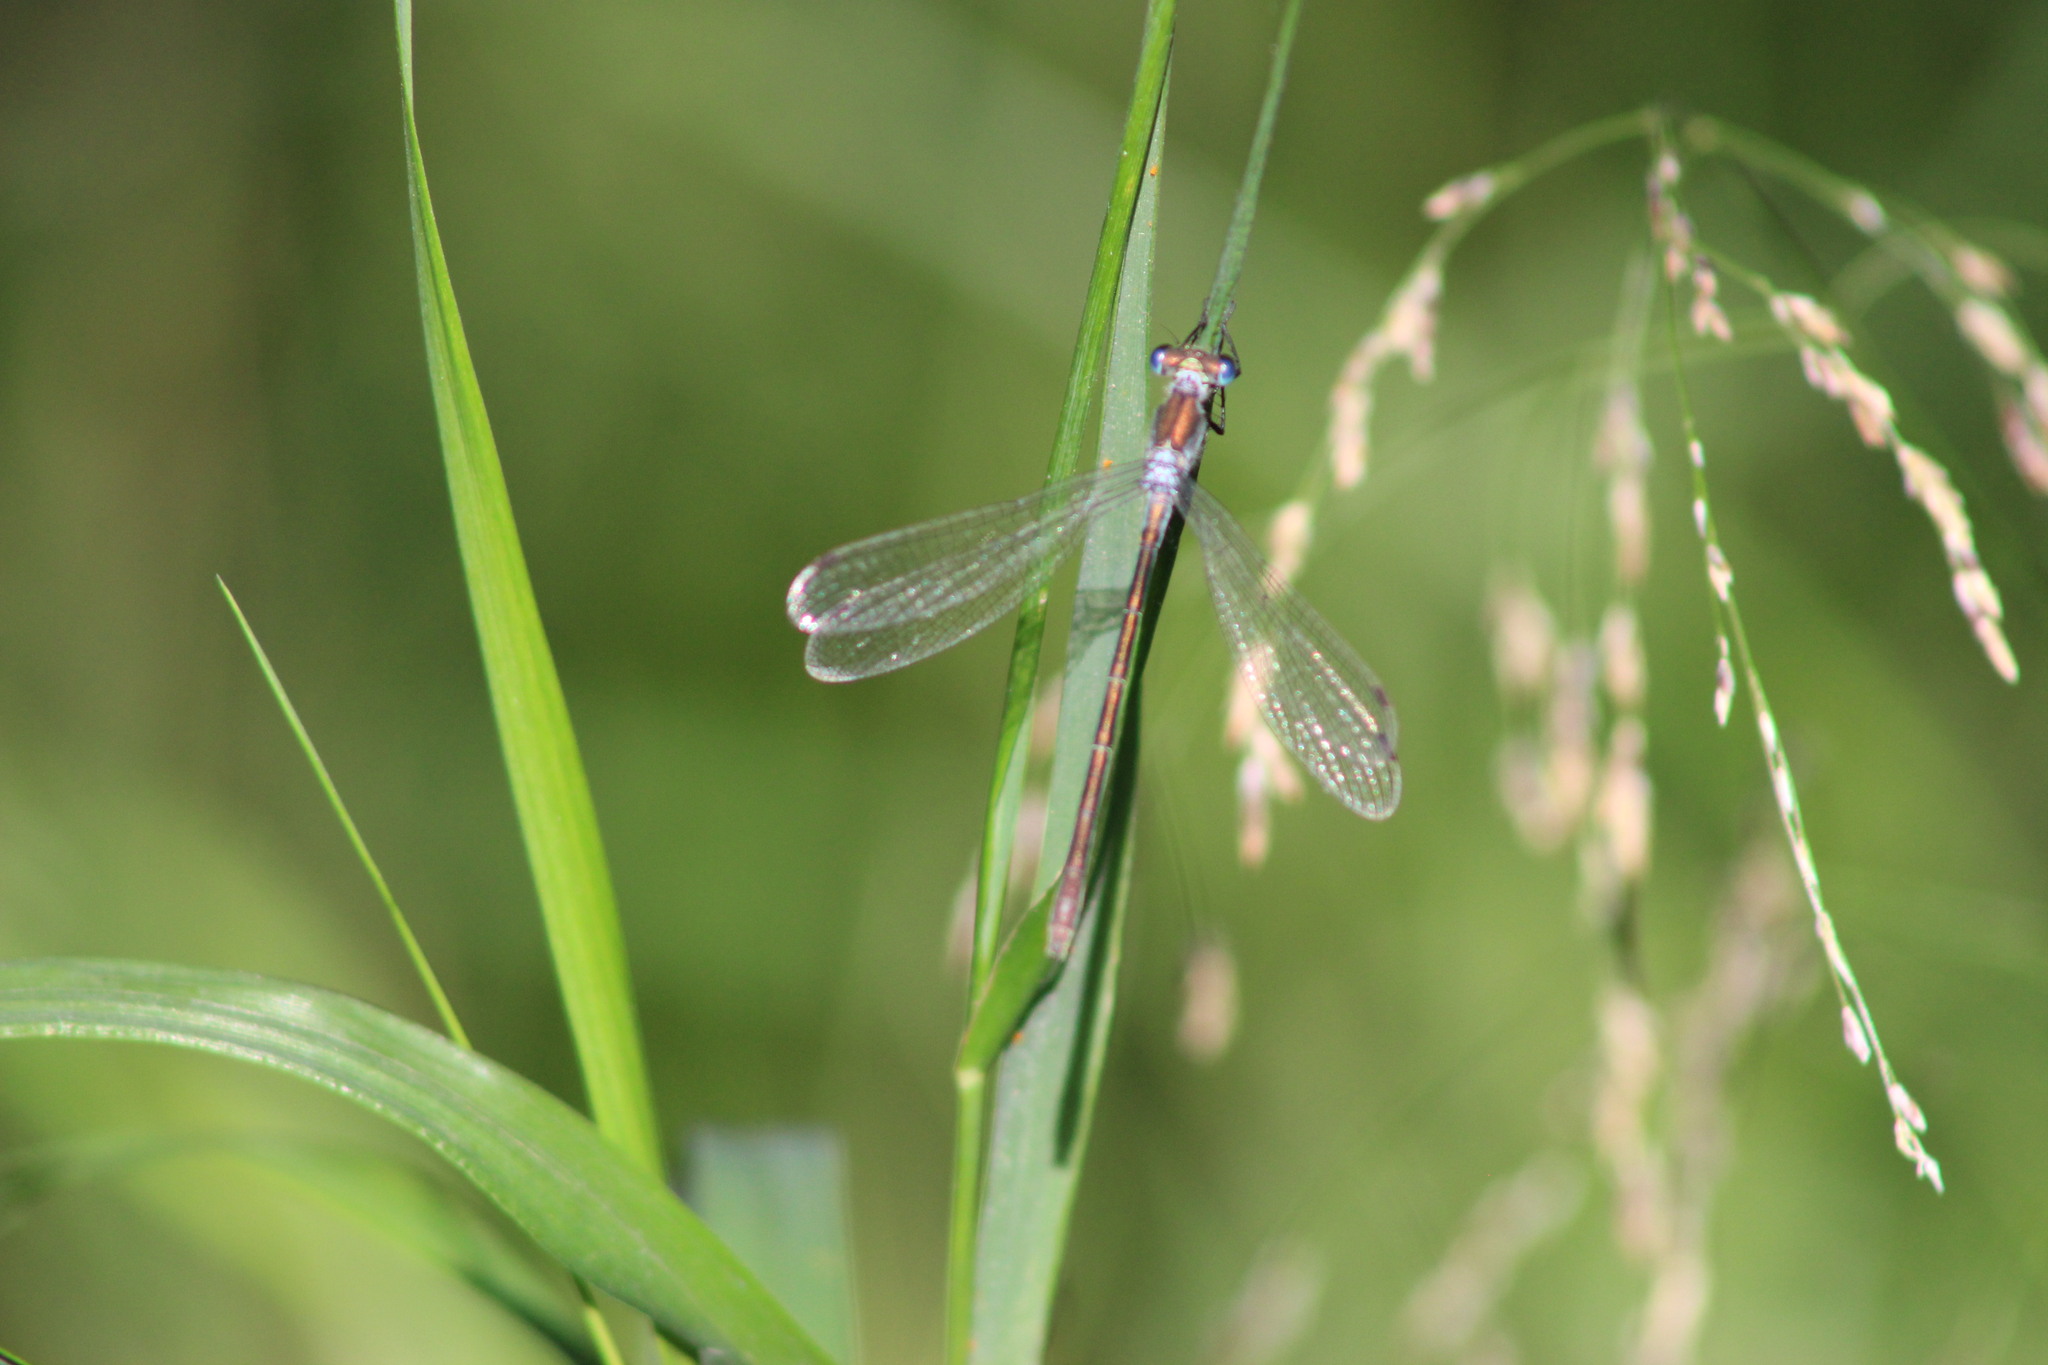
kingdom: Animalia
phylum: Arthropoda
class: Insecta
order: Odonata
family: Lestidae
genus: Lestes
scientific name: Lestes sponsa
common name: Common spreadwing
